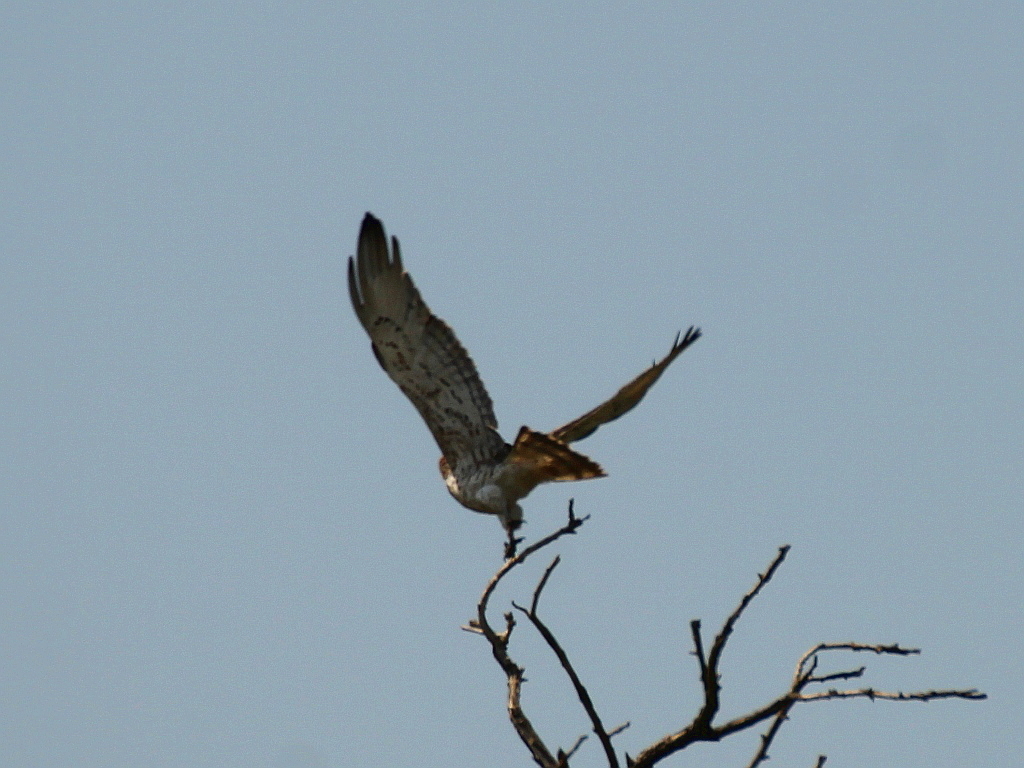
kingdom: Animalia
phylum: Chordata
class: Aves
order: Accipitriformes
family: Accipitridae
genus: Circaetus
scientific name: Circaetus gallicus
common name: Short-toed snake eagle
